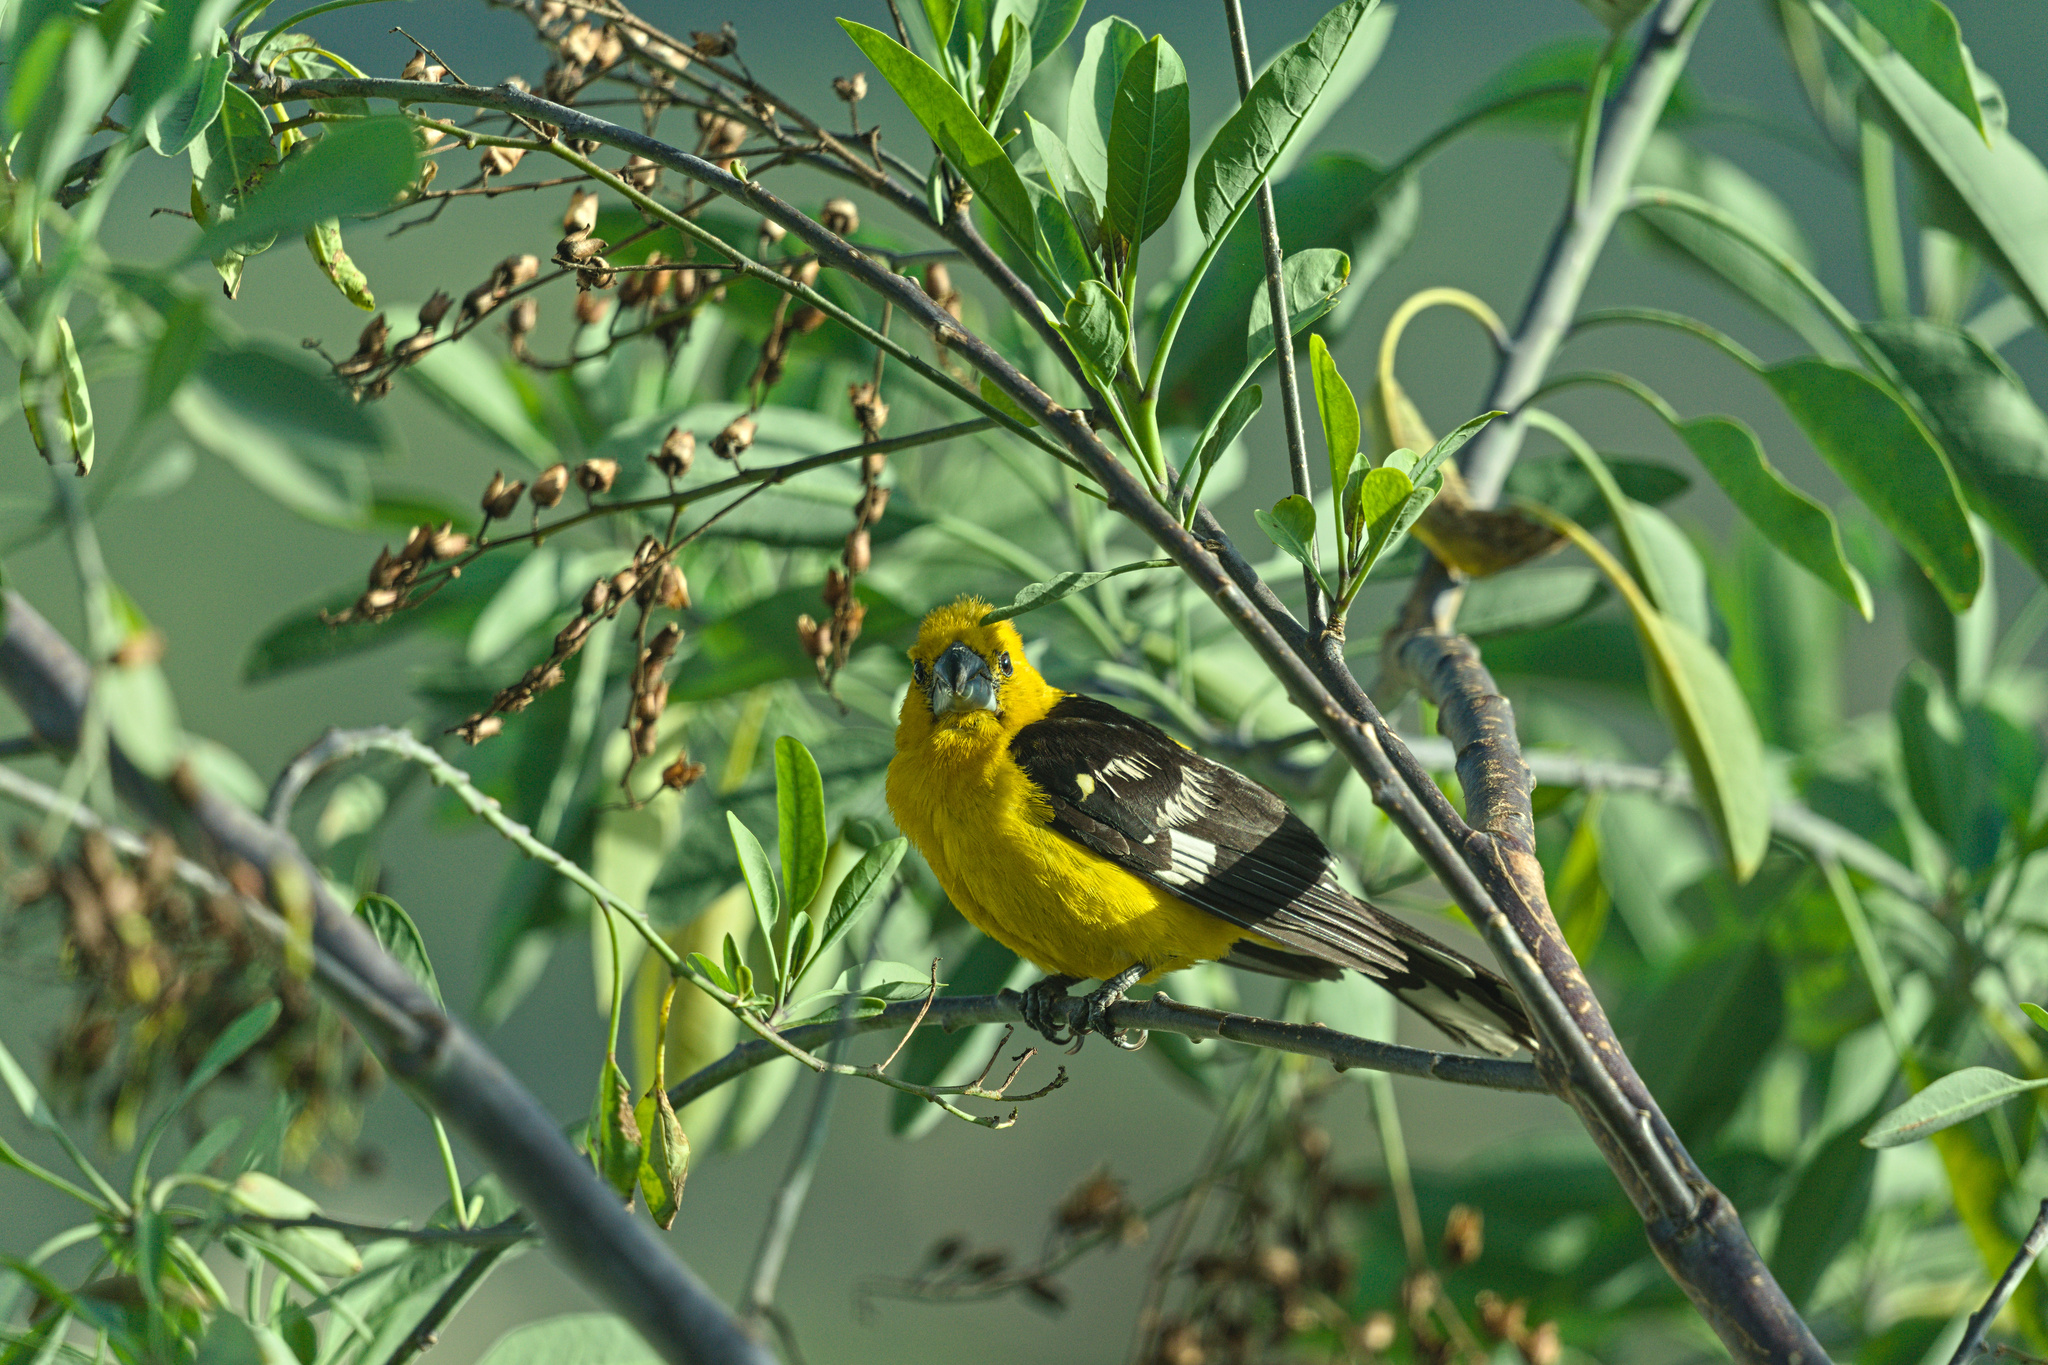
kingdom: Animalia
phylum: Chordata
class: Aves
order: Passeriformes
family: Cardinalidae
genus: Pheucticus
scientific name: Pheucticus chrysogaster
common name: Golden grosbeak
